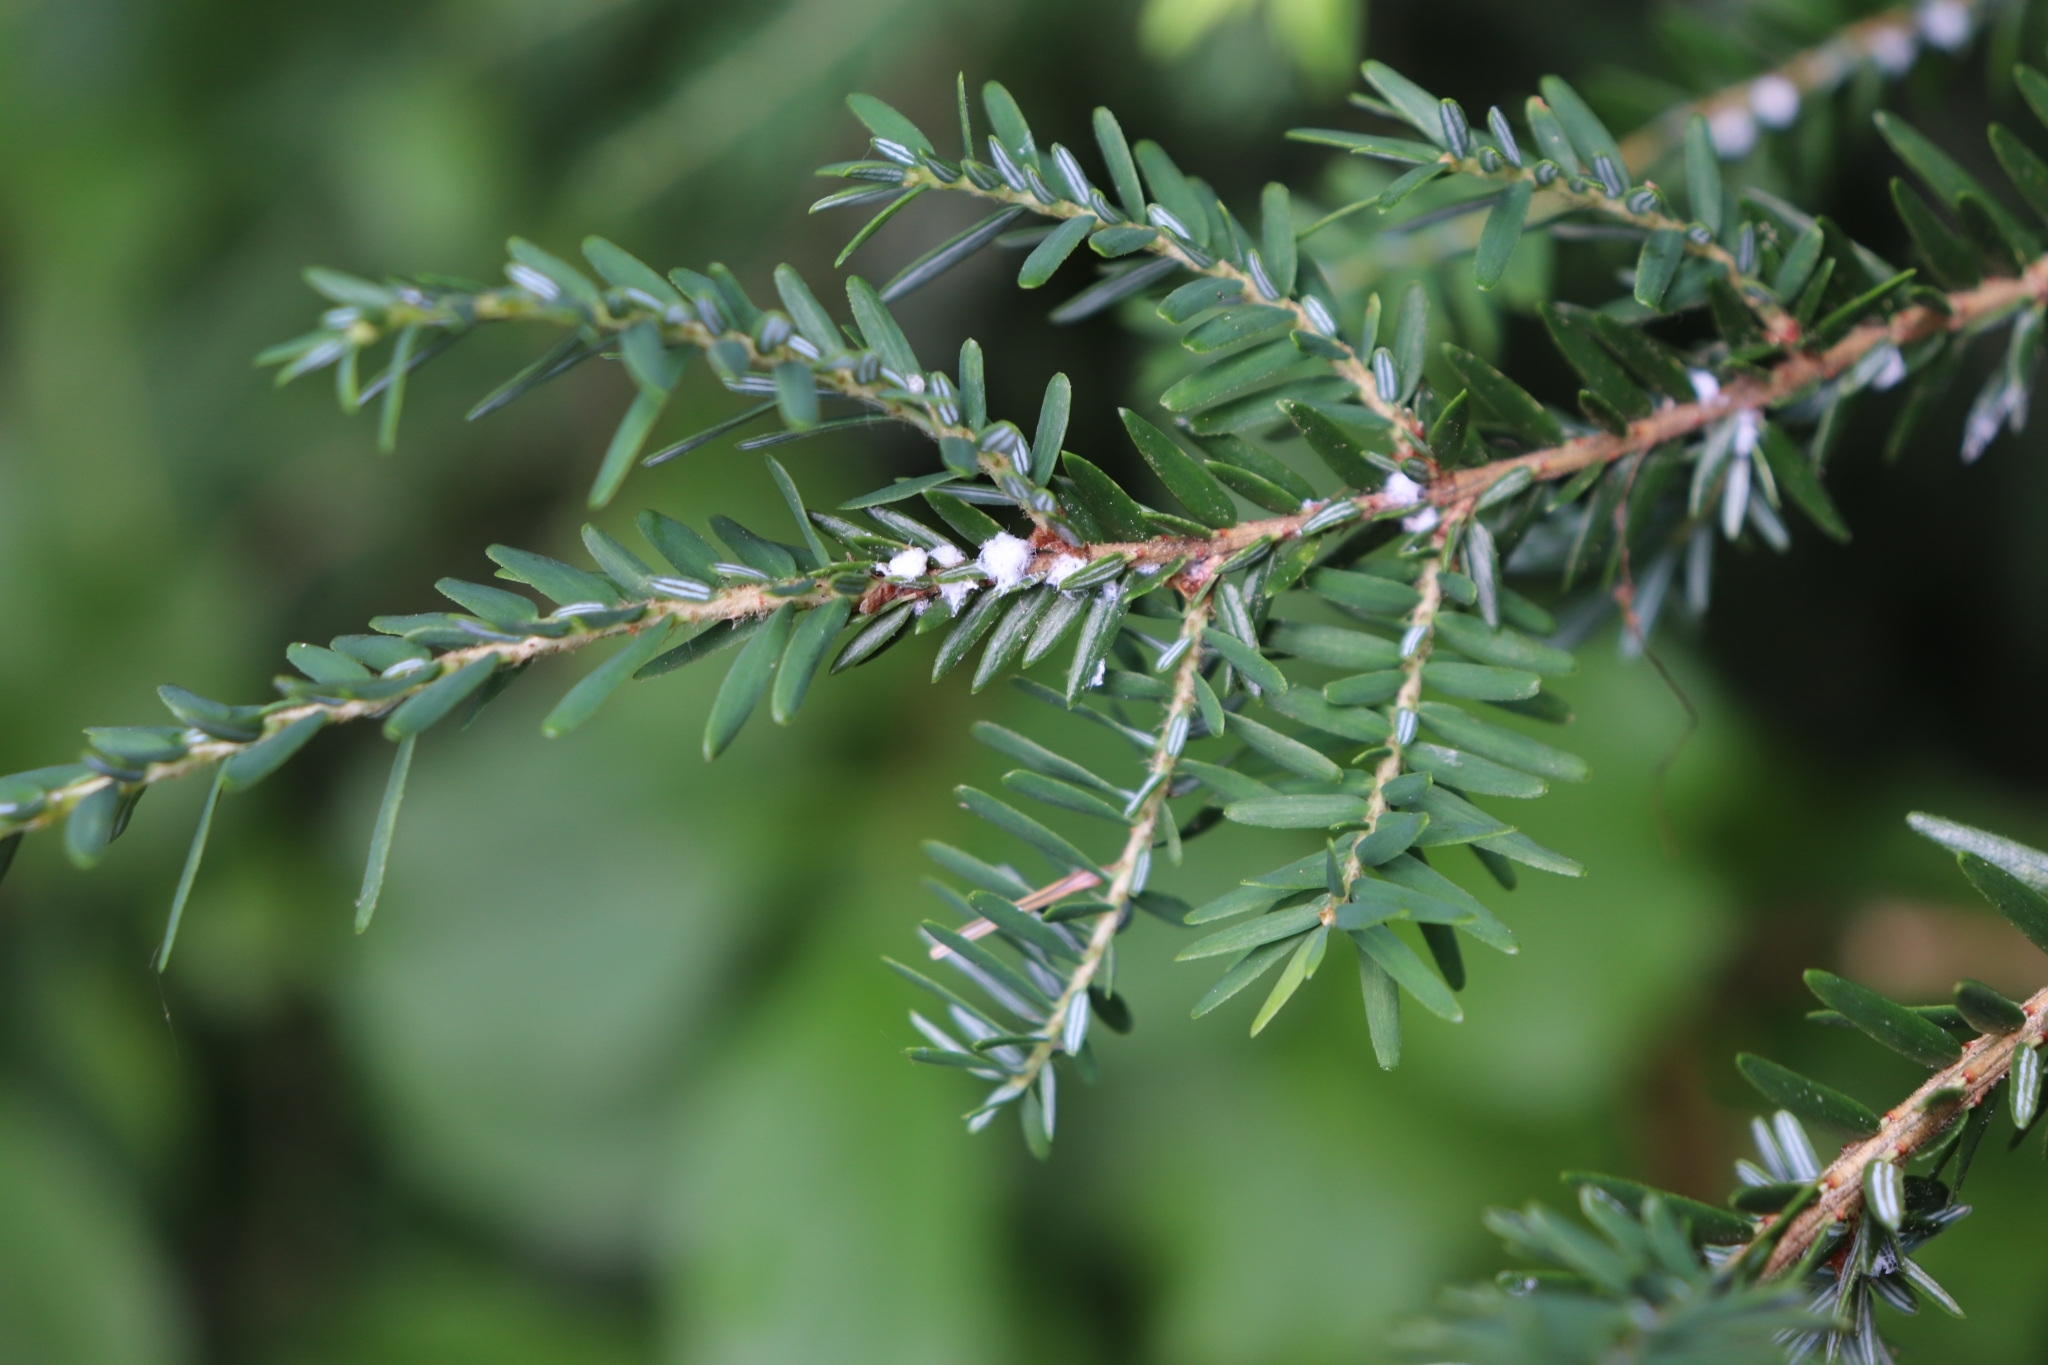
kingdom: Animalia
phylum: Arthropoda
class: Insecta
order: Hemiptera
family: Adelgidae
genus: Adelges
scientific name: Adelges tsugae
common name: Hemlock woolly adelgid
